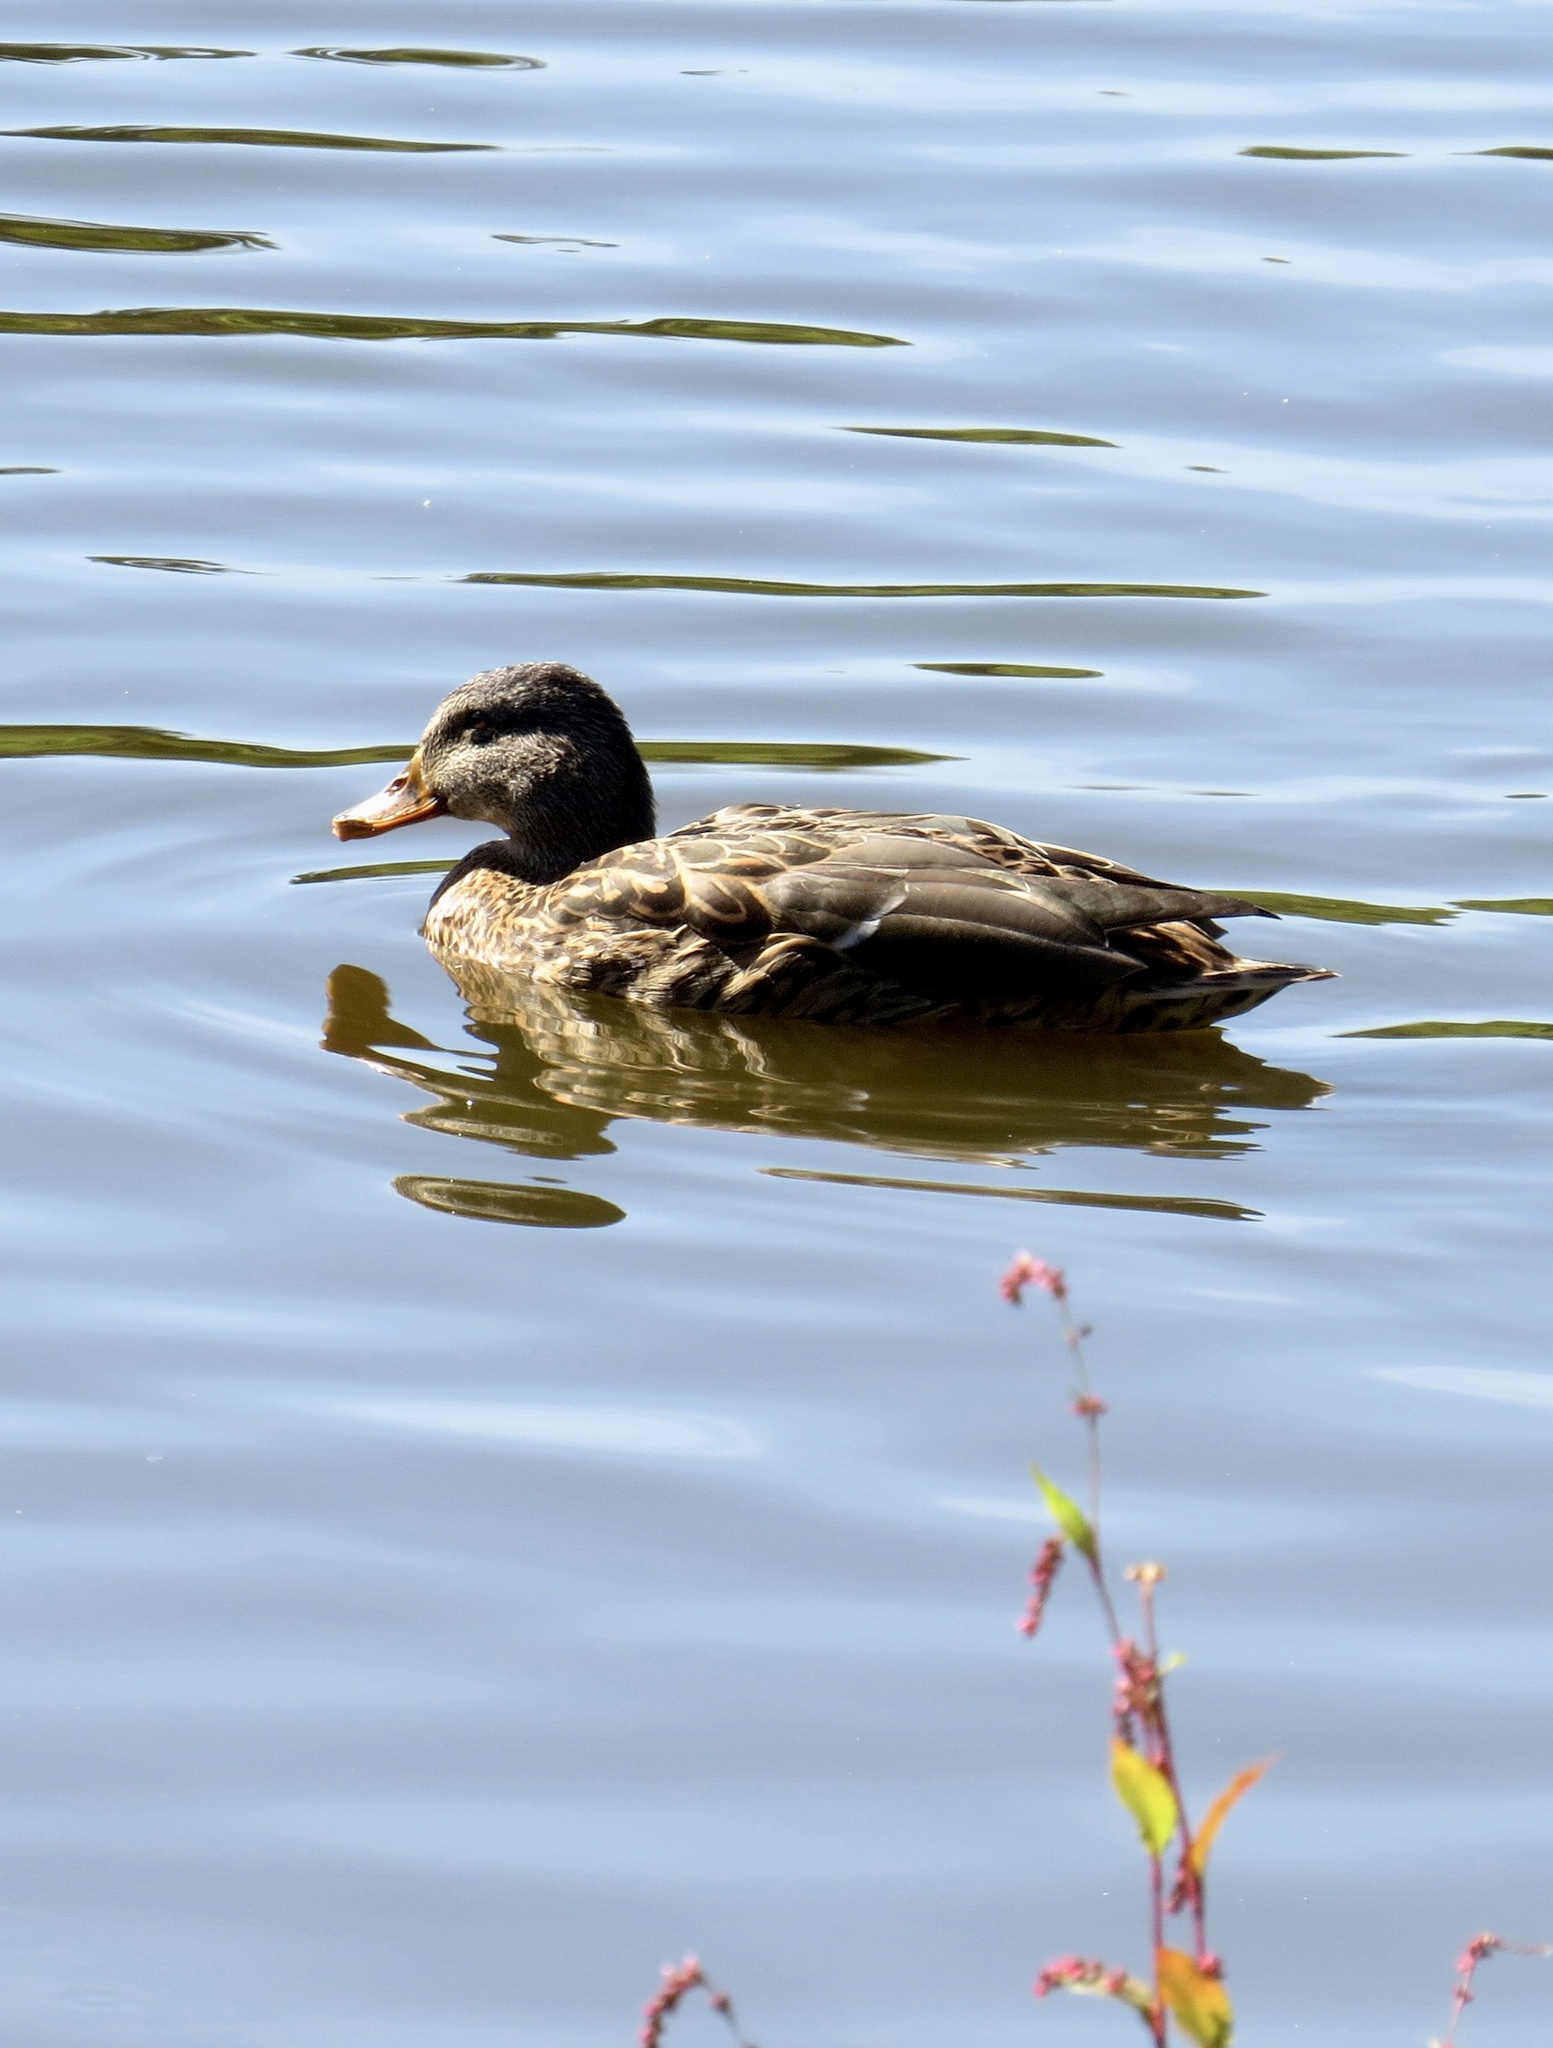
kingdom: Animalia
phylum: Chordata
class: Aves
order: Anseriformes
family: Anatidae
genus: Anas
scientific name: Anas platyrhynchos
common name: Mallard
